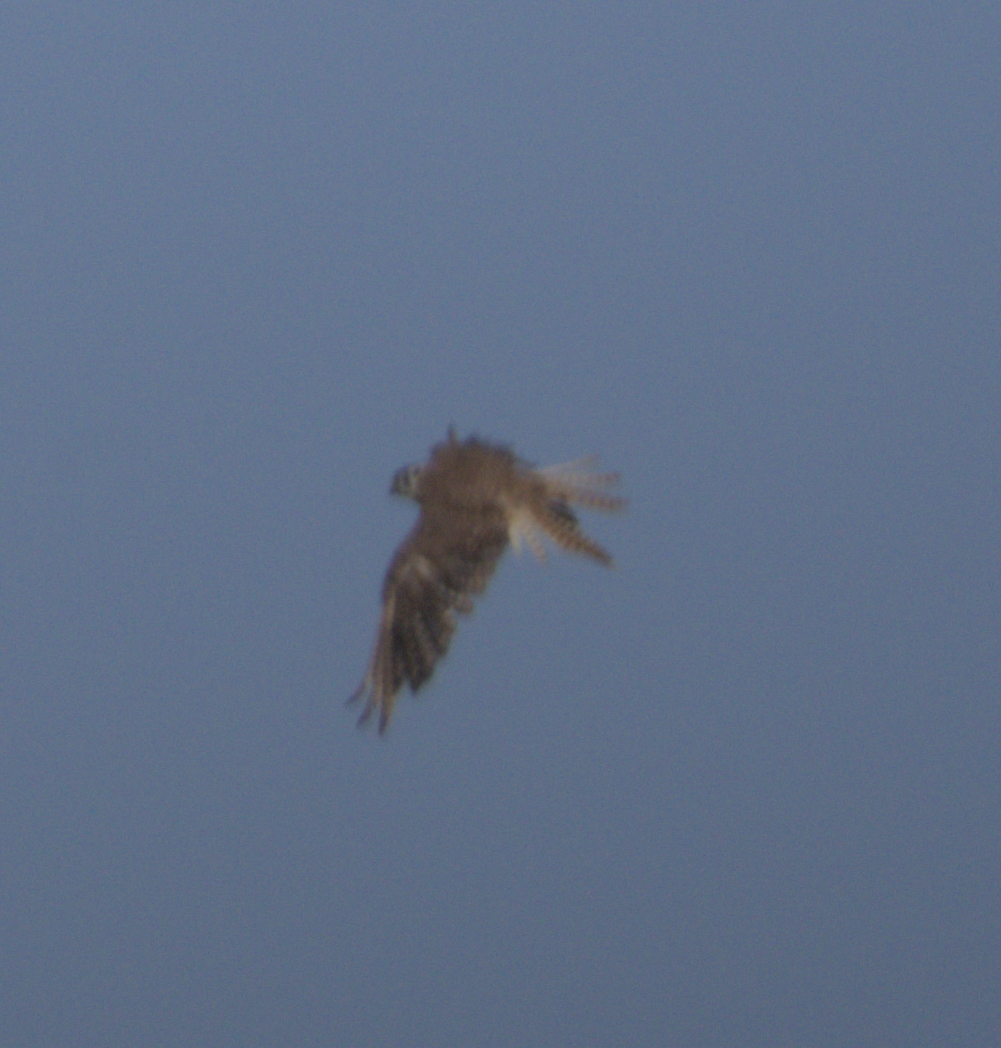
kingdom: Animalia
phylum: Chordata
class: Aves
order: Falconiformes
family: Falconidae
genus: Falco
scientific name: Falco sparverius
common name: American kestrel
